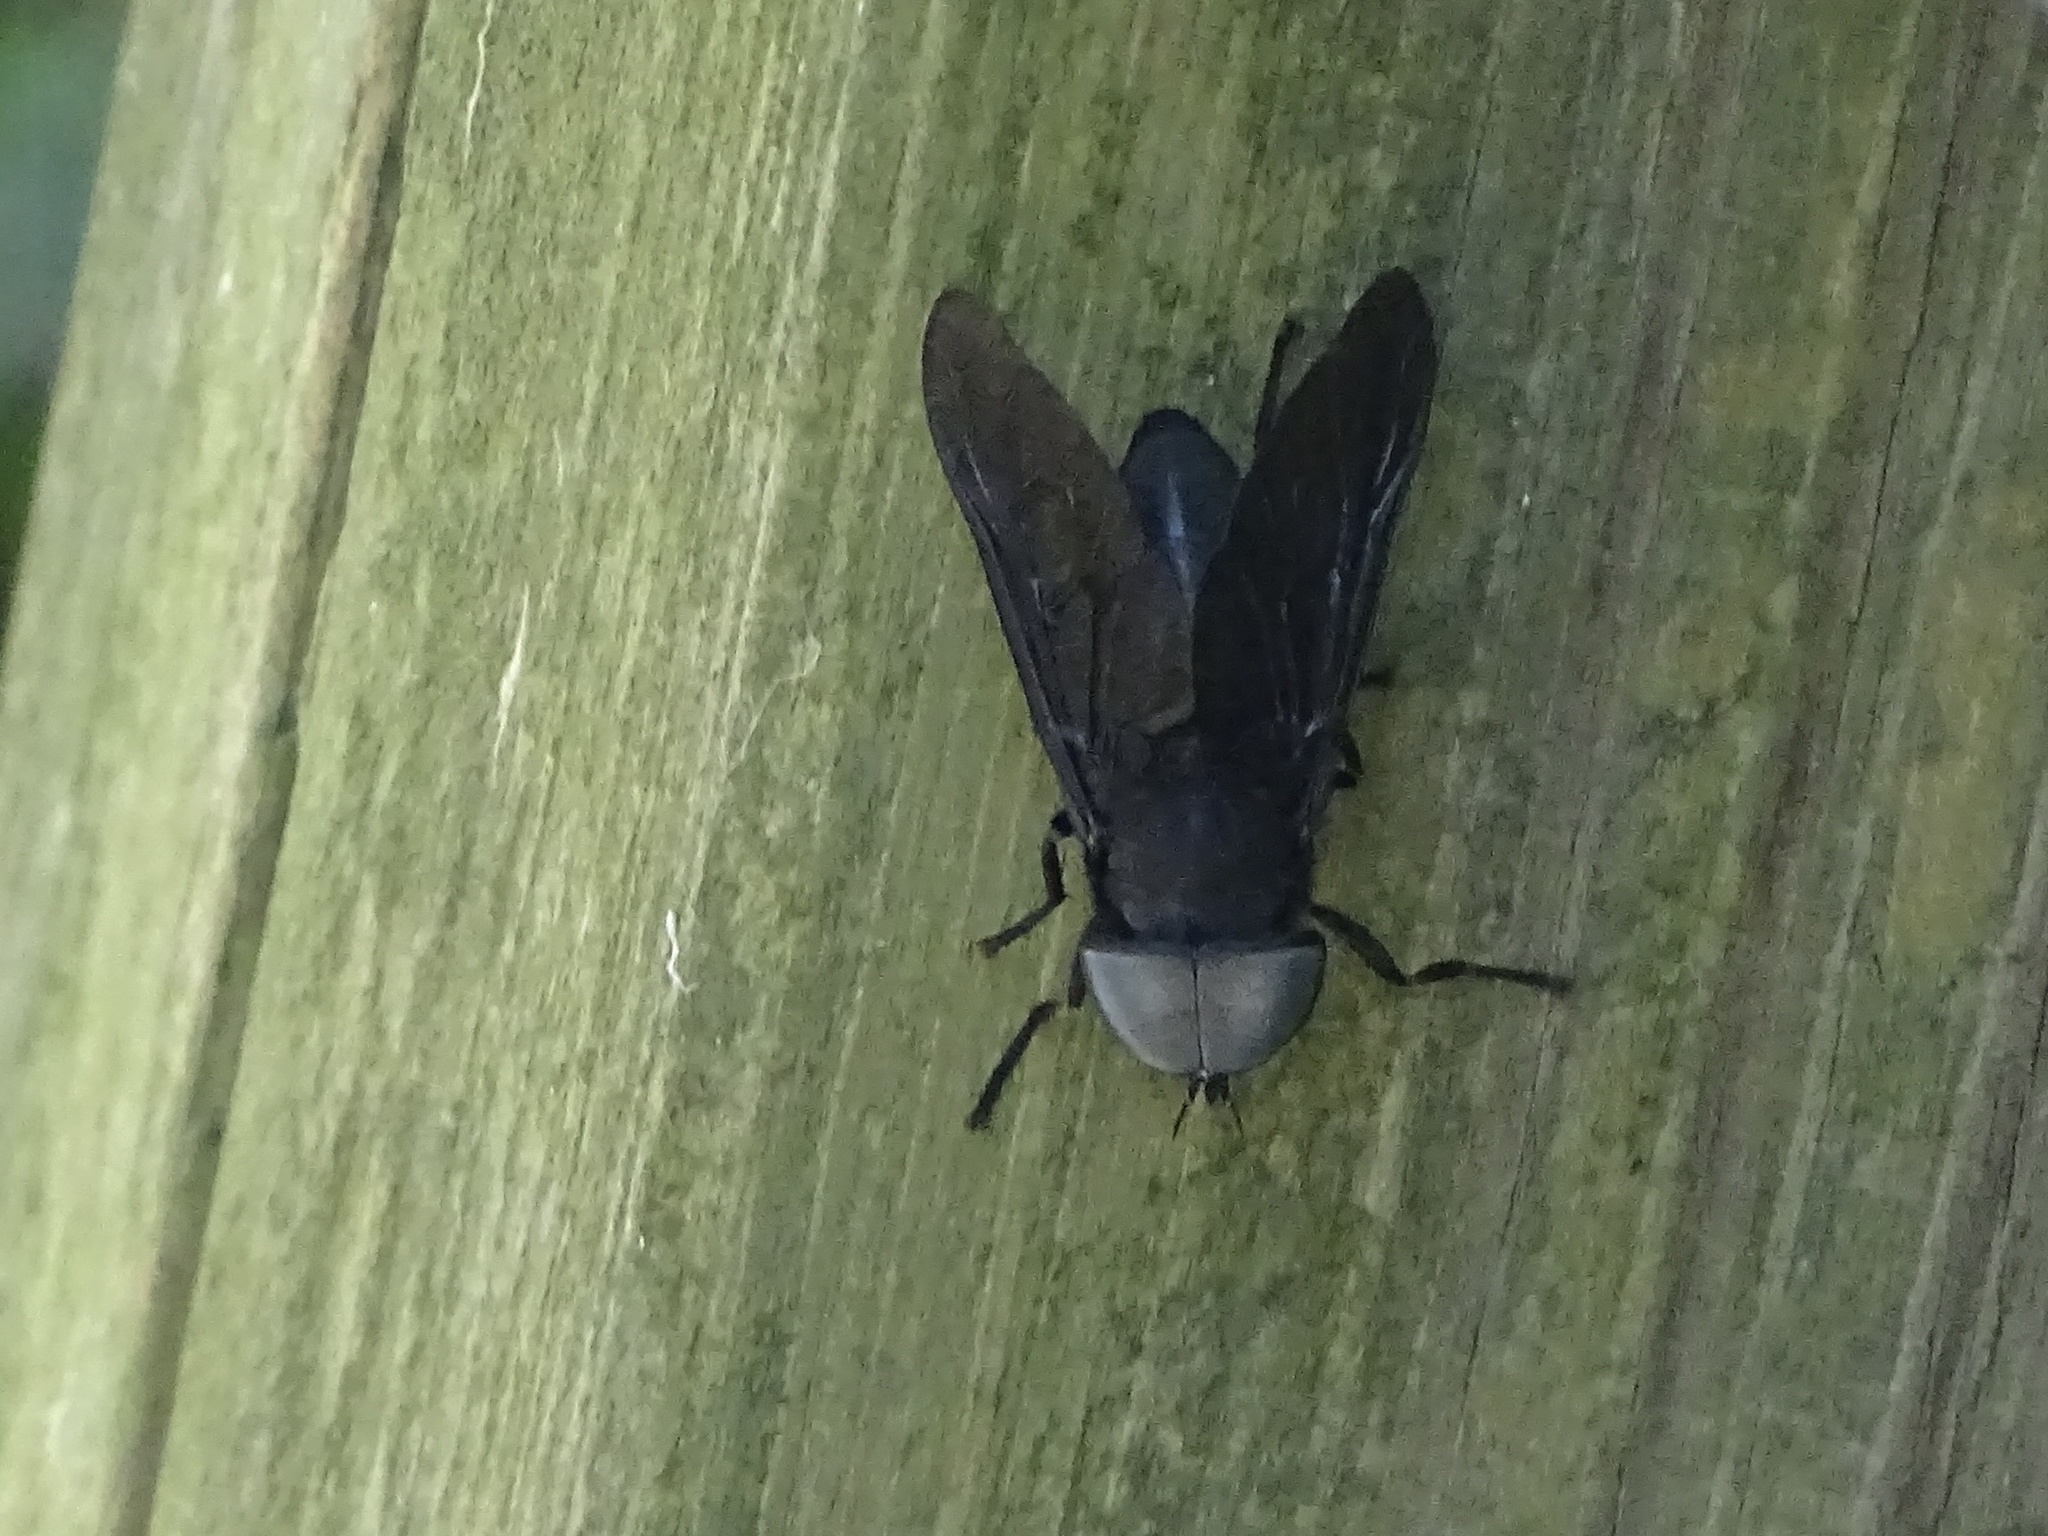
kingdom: Animalia
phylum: Arthropoda
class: Insecta
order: Diptera
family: Tabanidae
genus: Tabanus
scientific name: Tabanus atratus
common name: Black horse fly
